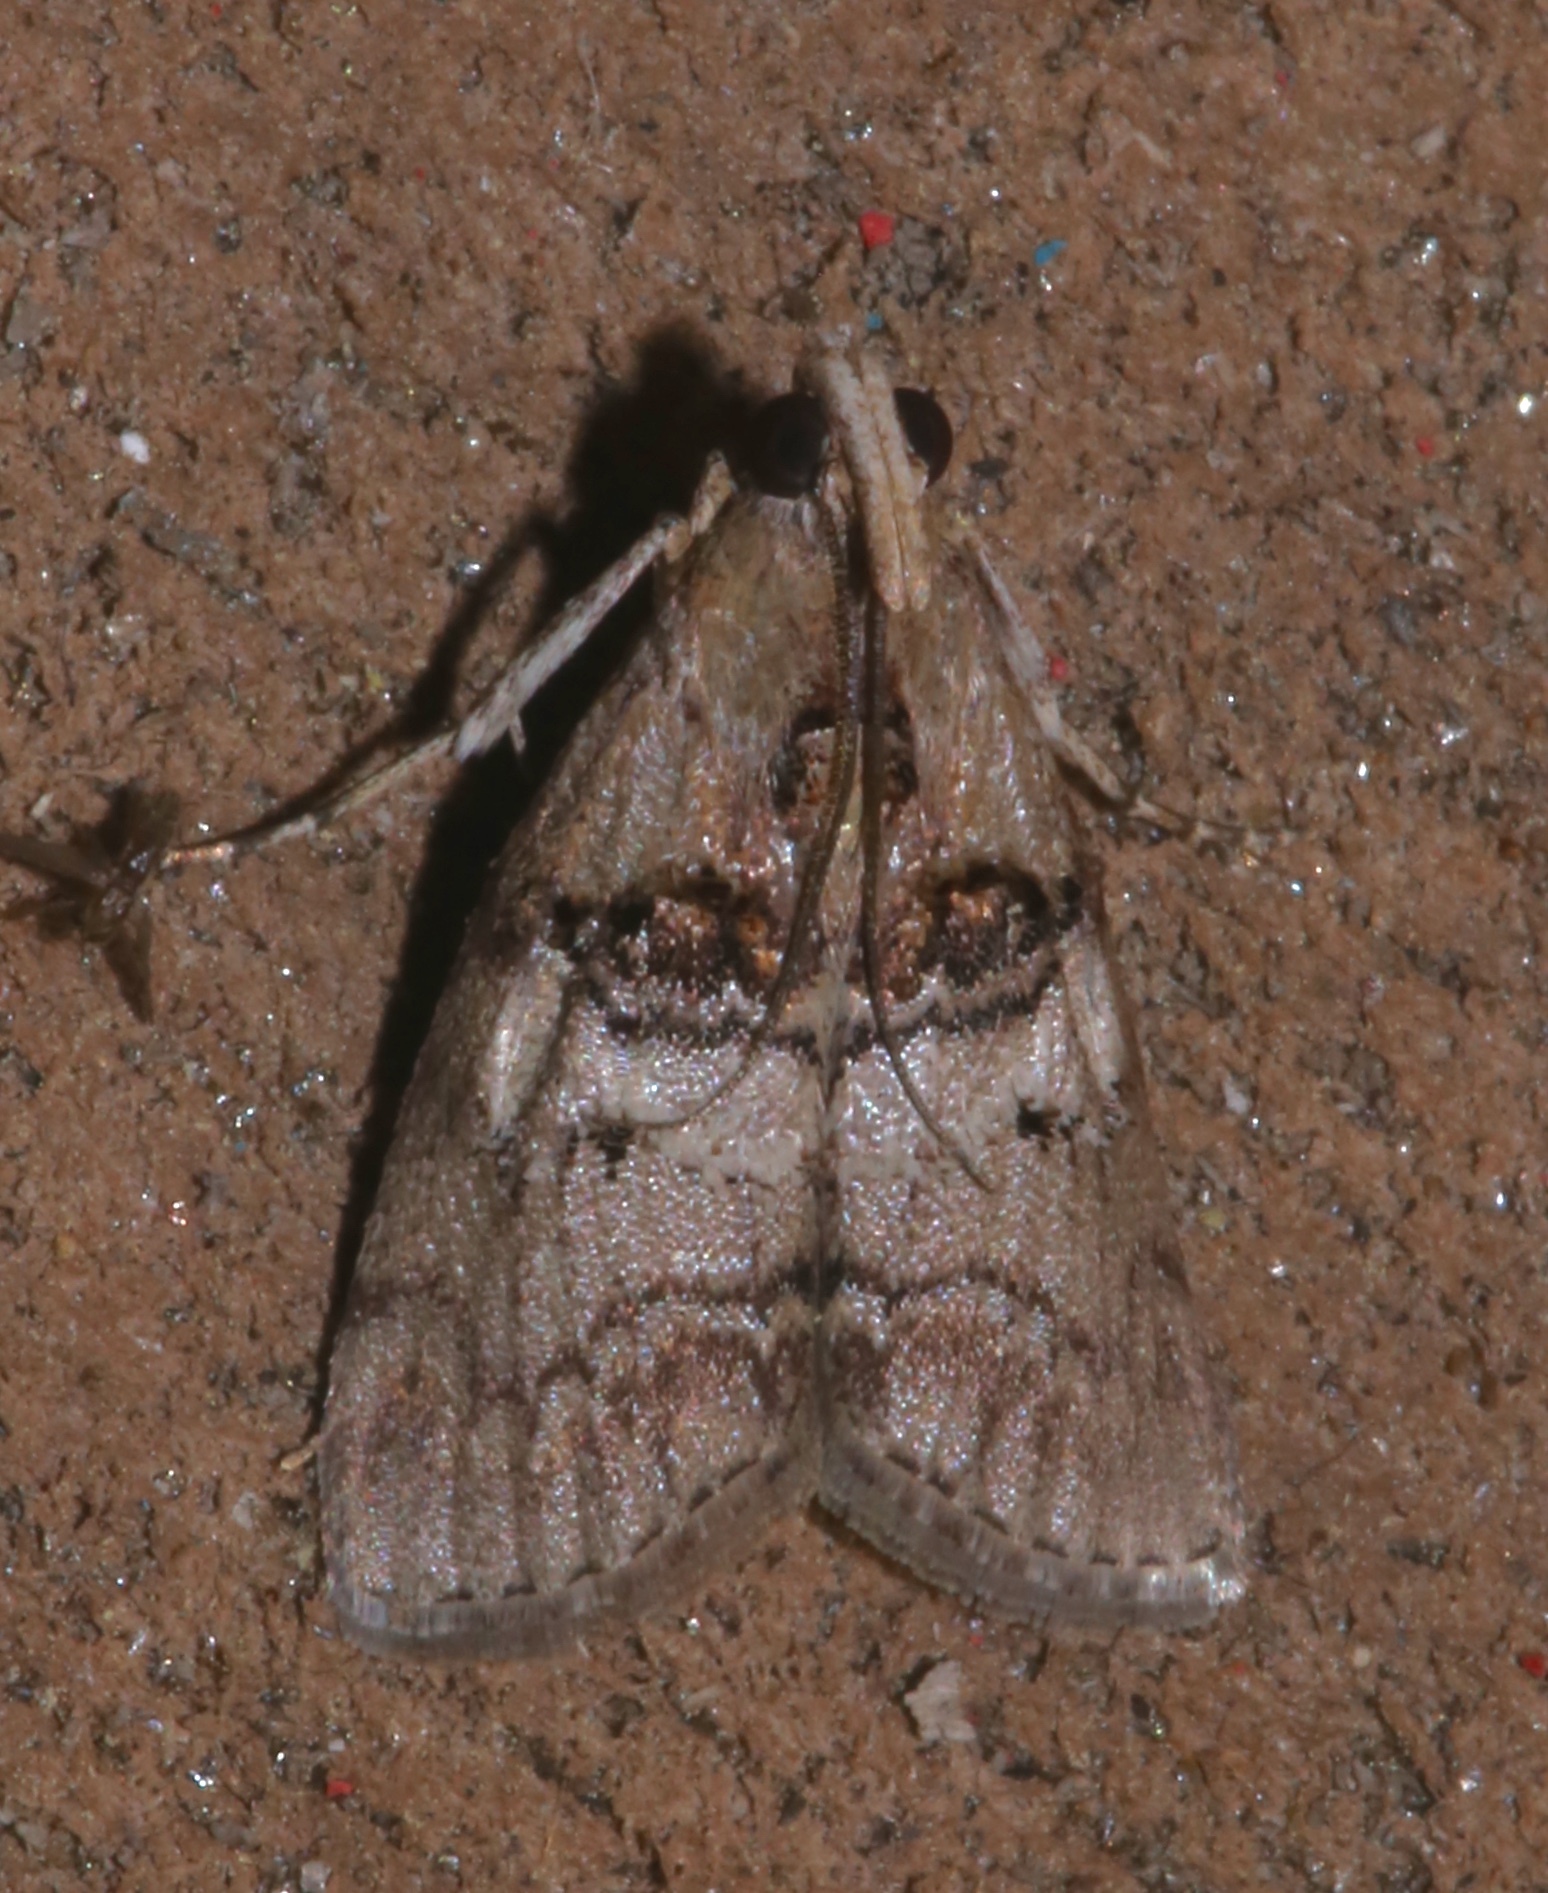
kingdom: Animalia
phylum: Arthropoda
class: Insecta
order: Lepidoptera
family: Pyralidae
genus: Pococera
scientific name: Pococera subcanalis
